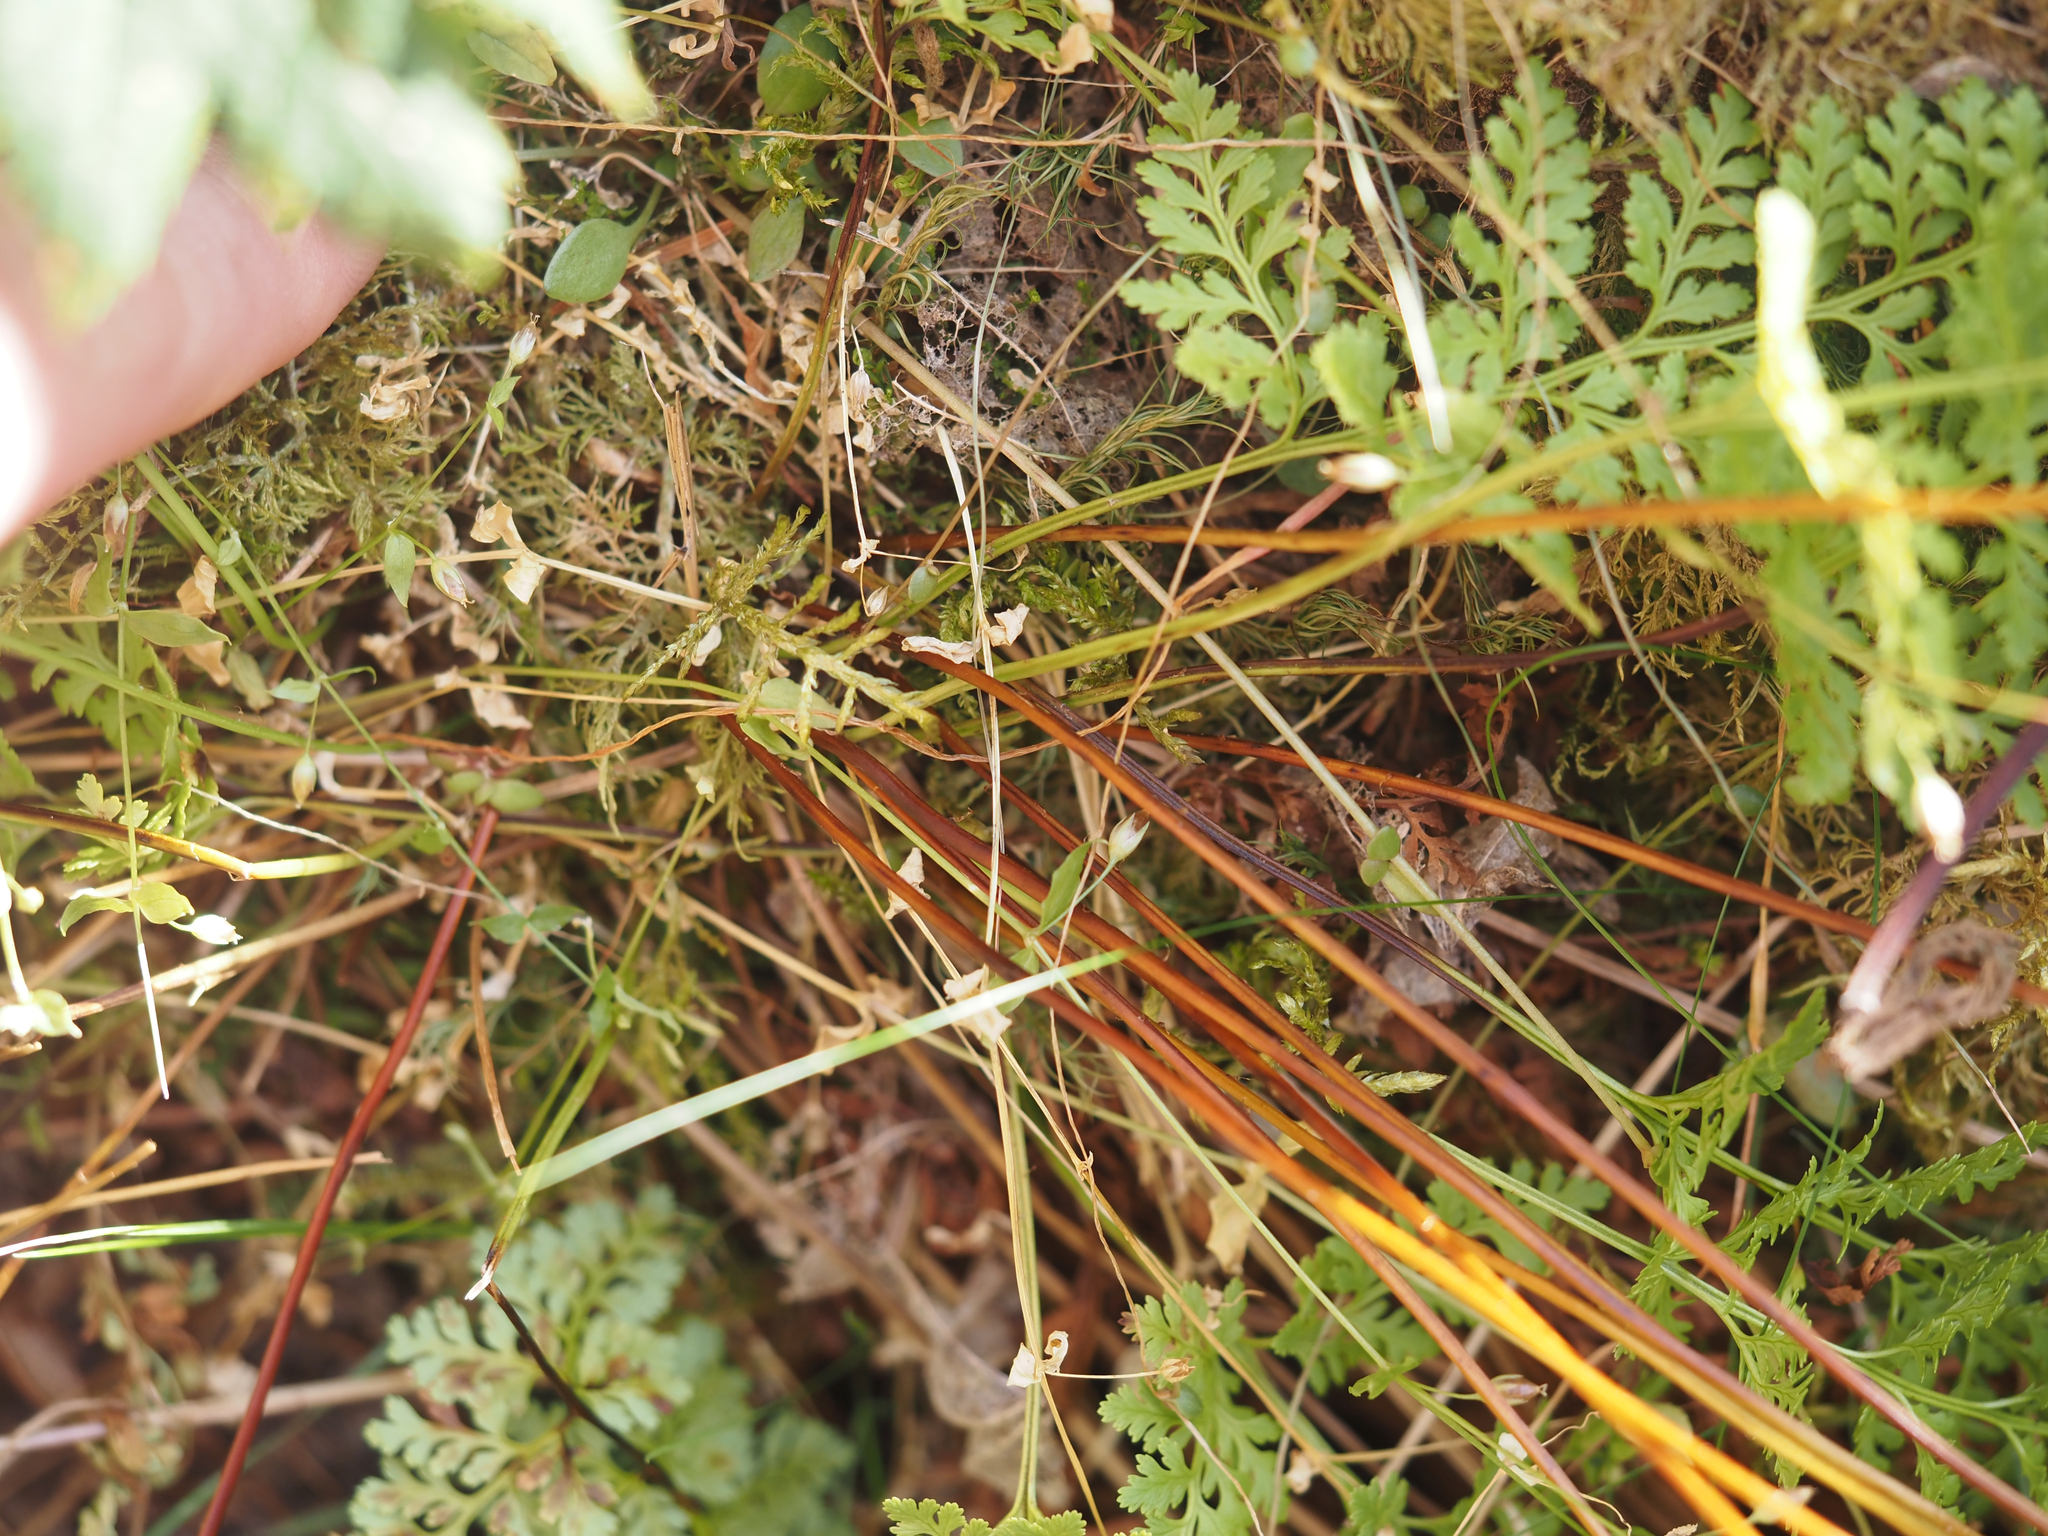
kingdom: Plantae
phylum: Tracheophyta
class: Polypodiopsida
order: Polypodiales
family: Pteridaceae
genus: Cryptogramma
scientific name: Cryptogramma acrostichoides
